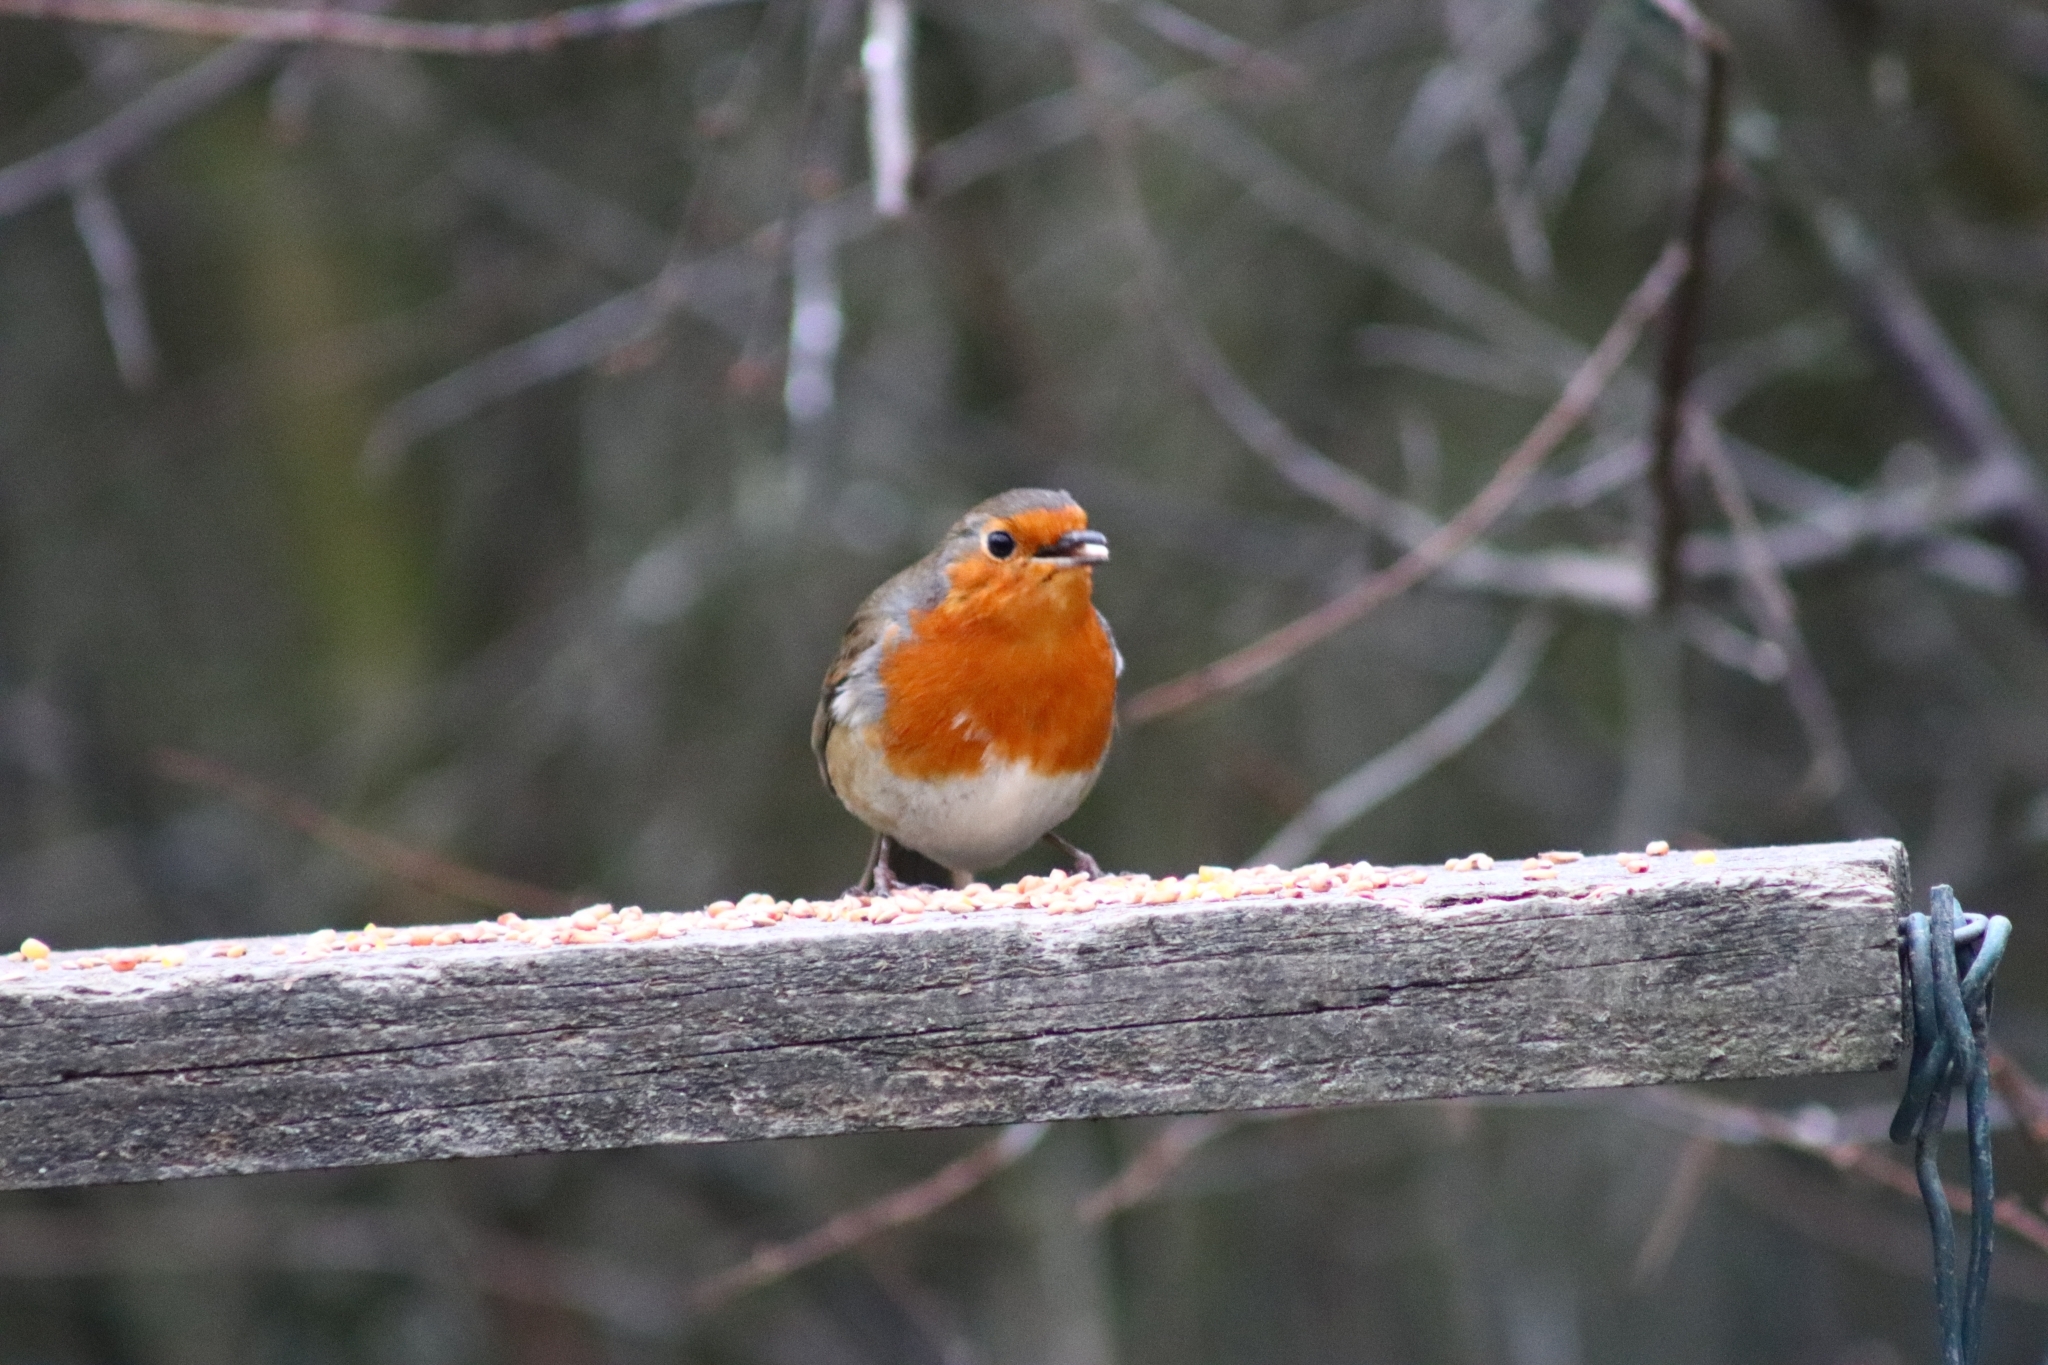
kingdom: Animalia
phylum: Chordata
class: Aves
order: Passeriformes
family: Muscicapidae
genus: Erithacus
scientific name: Erithacus rubecula
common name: European robin
